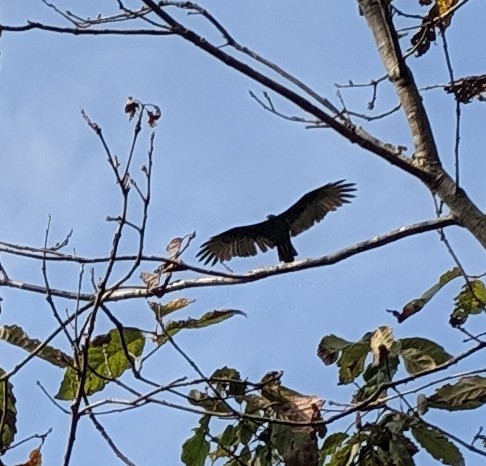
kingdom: Animalia
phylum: Chordata
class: Aves
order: Accipitriformes
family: Cathartidae
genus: Cathartes
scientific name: Cathartes aura
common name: Turkey vulture
